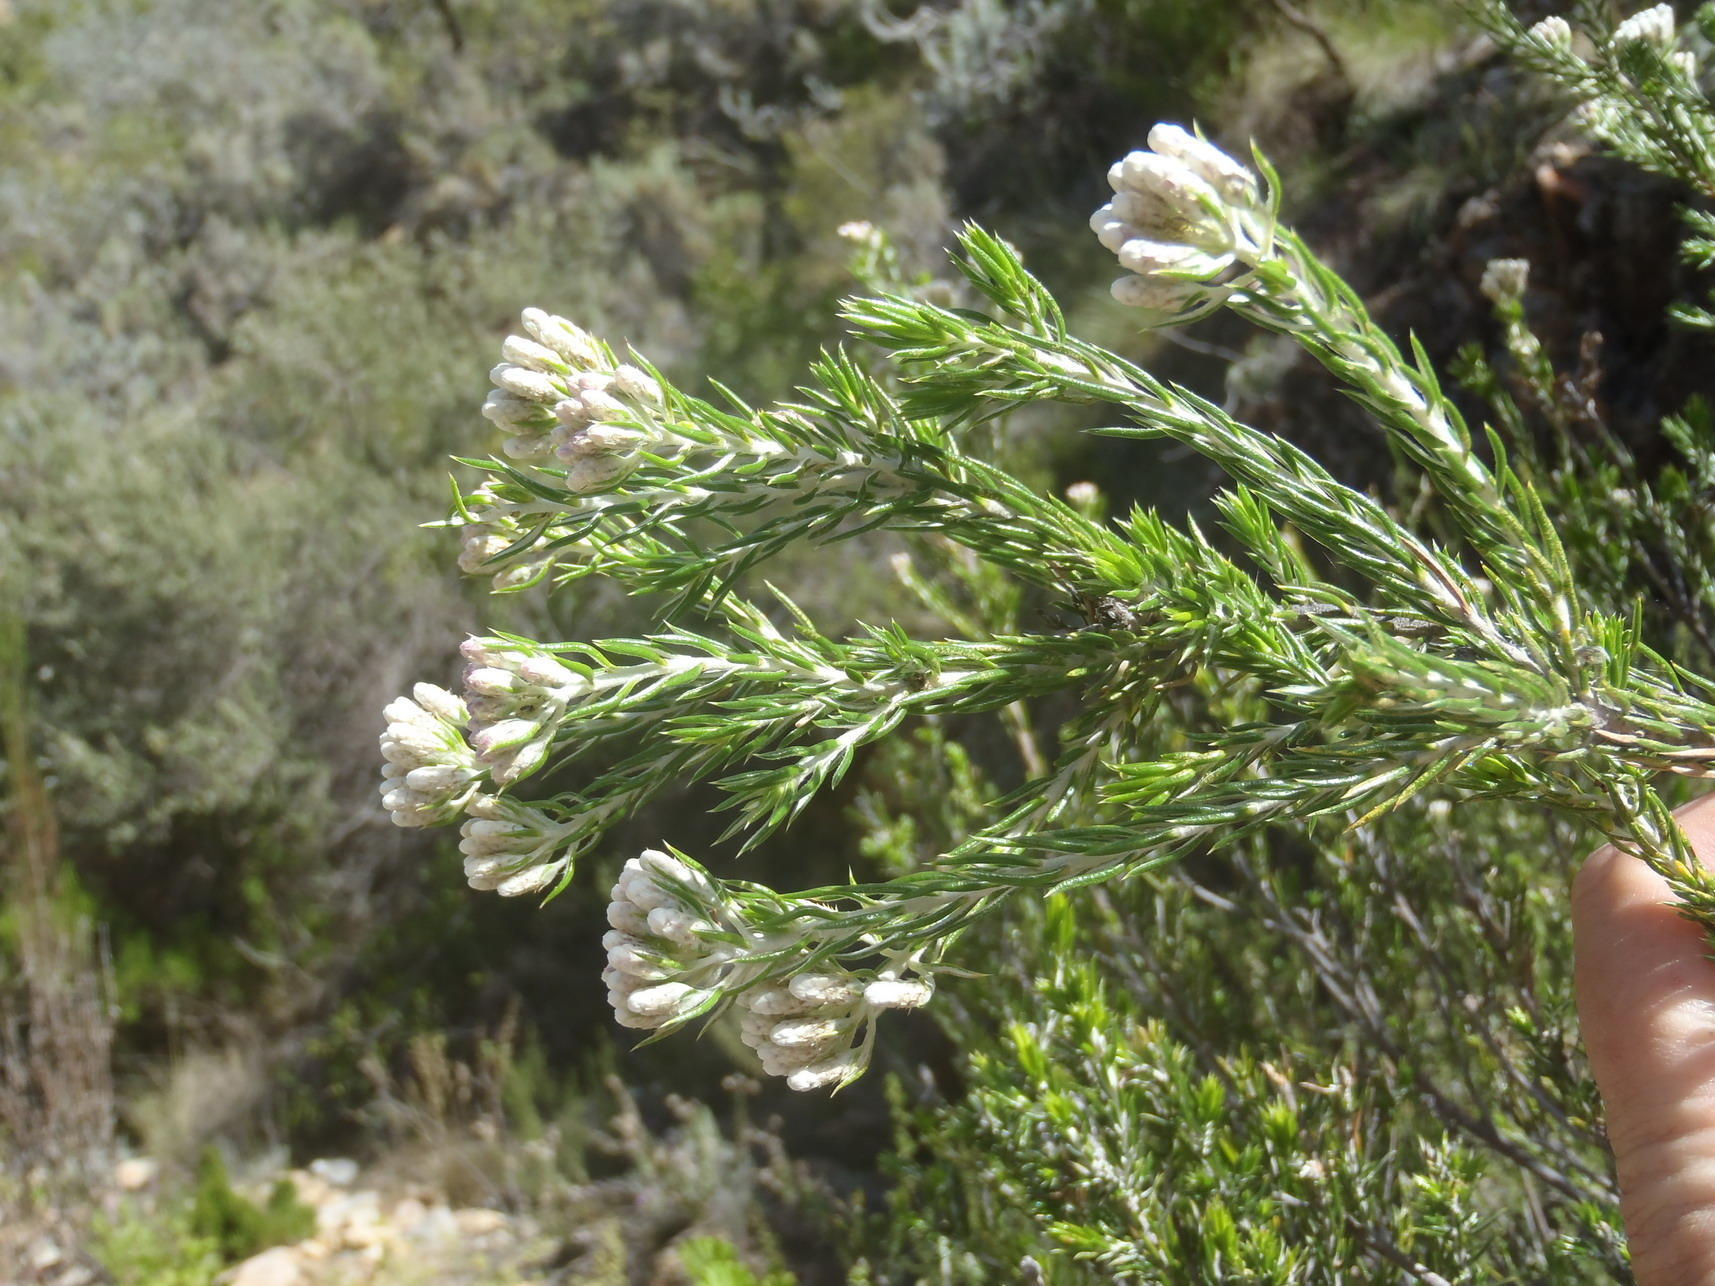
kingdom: Plantae
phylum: Tracheophyta
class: Magnoliopsida
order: Asterales
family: Asteraceae
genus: Metalasia
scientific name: Metalasia pallida
